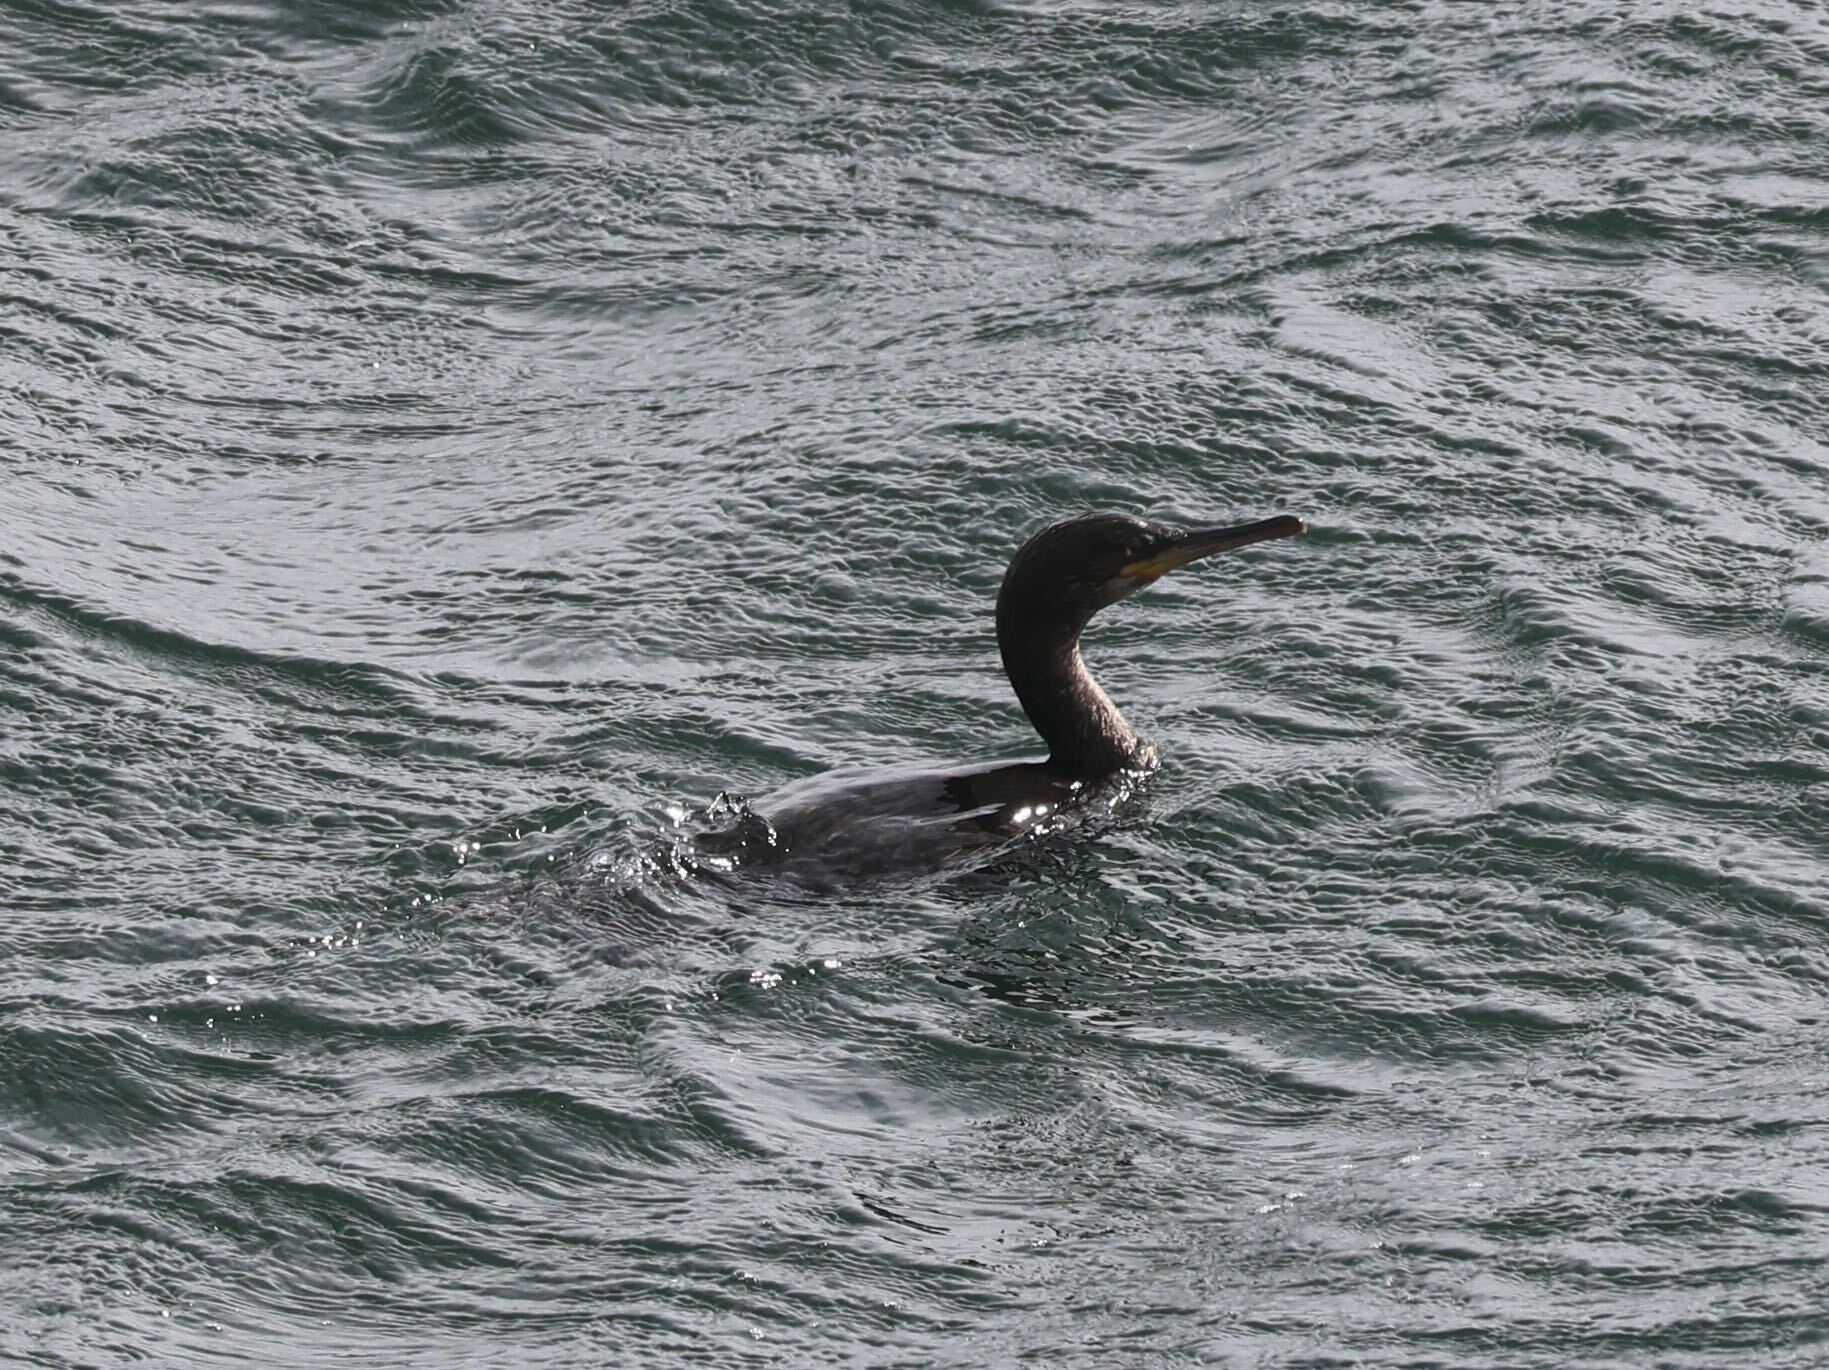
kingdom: Animalia
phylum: Chordata
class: Aves
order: Suliformes
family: Phalacrocoracidae
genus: Phalacrocorax
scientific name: Phalacrocorax aristotelis
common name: European shag
